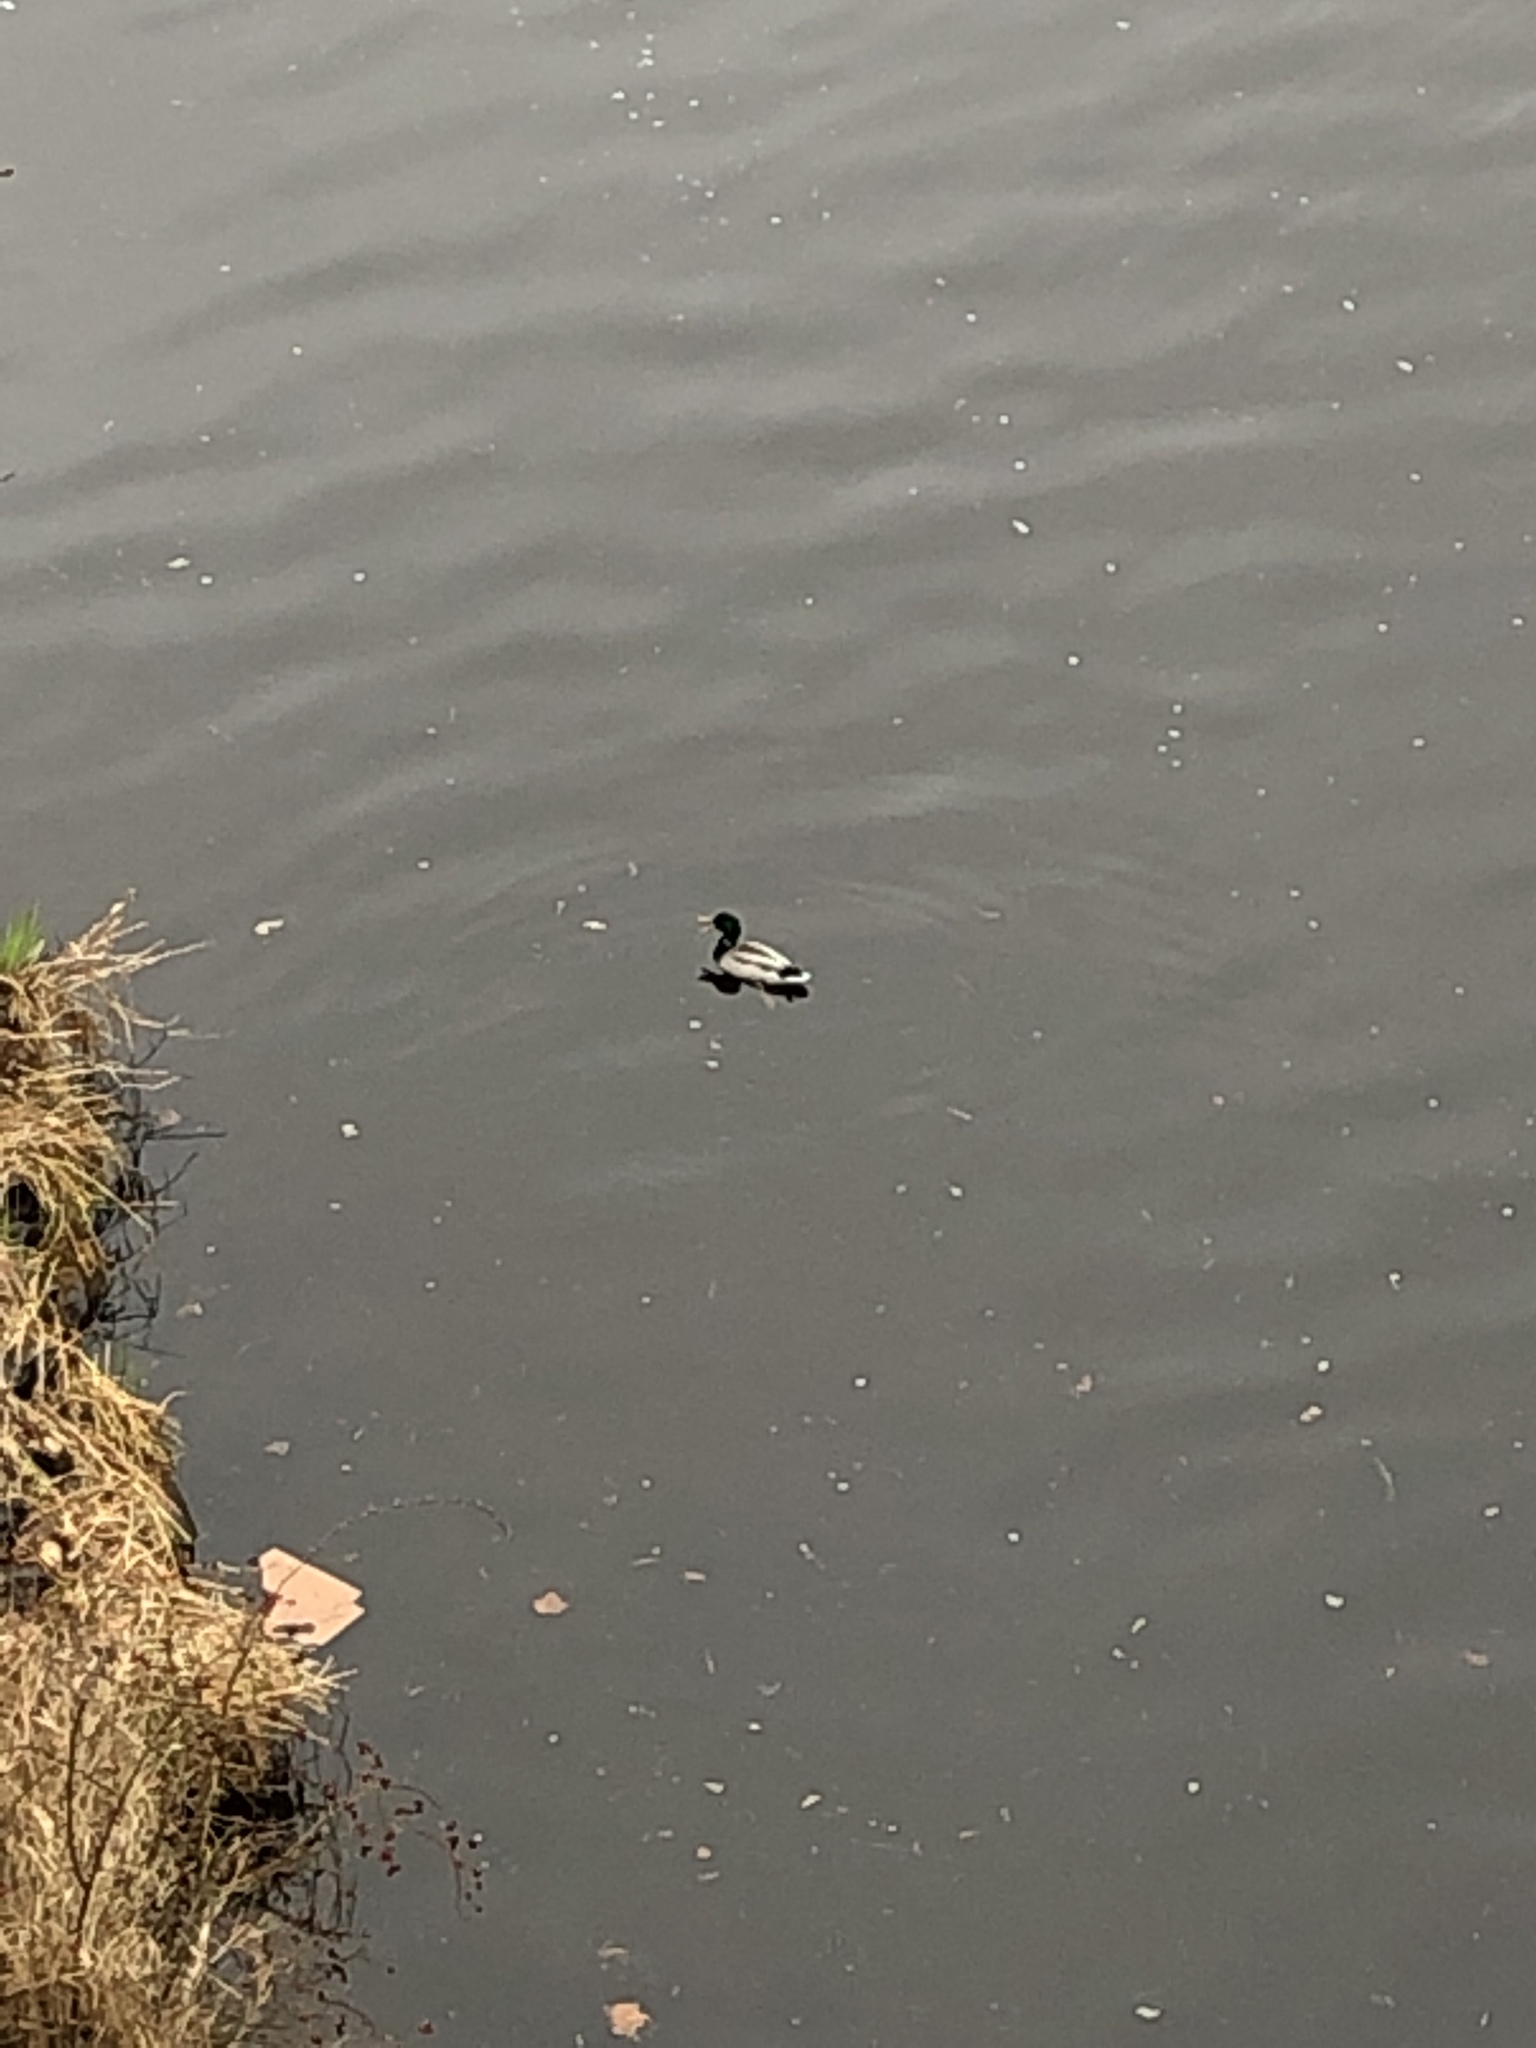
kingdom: Animalia
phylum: Chordata
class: Aves
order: Anseriformes
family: Anatidae
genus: Anas
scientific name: Anas platyrhynchos
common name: Mallard
